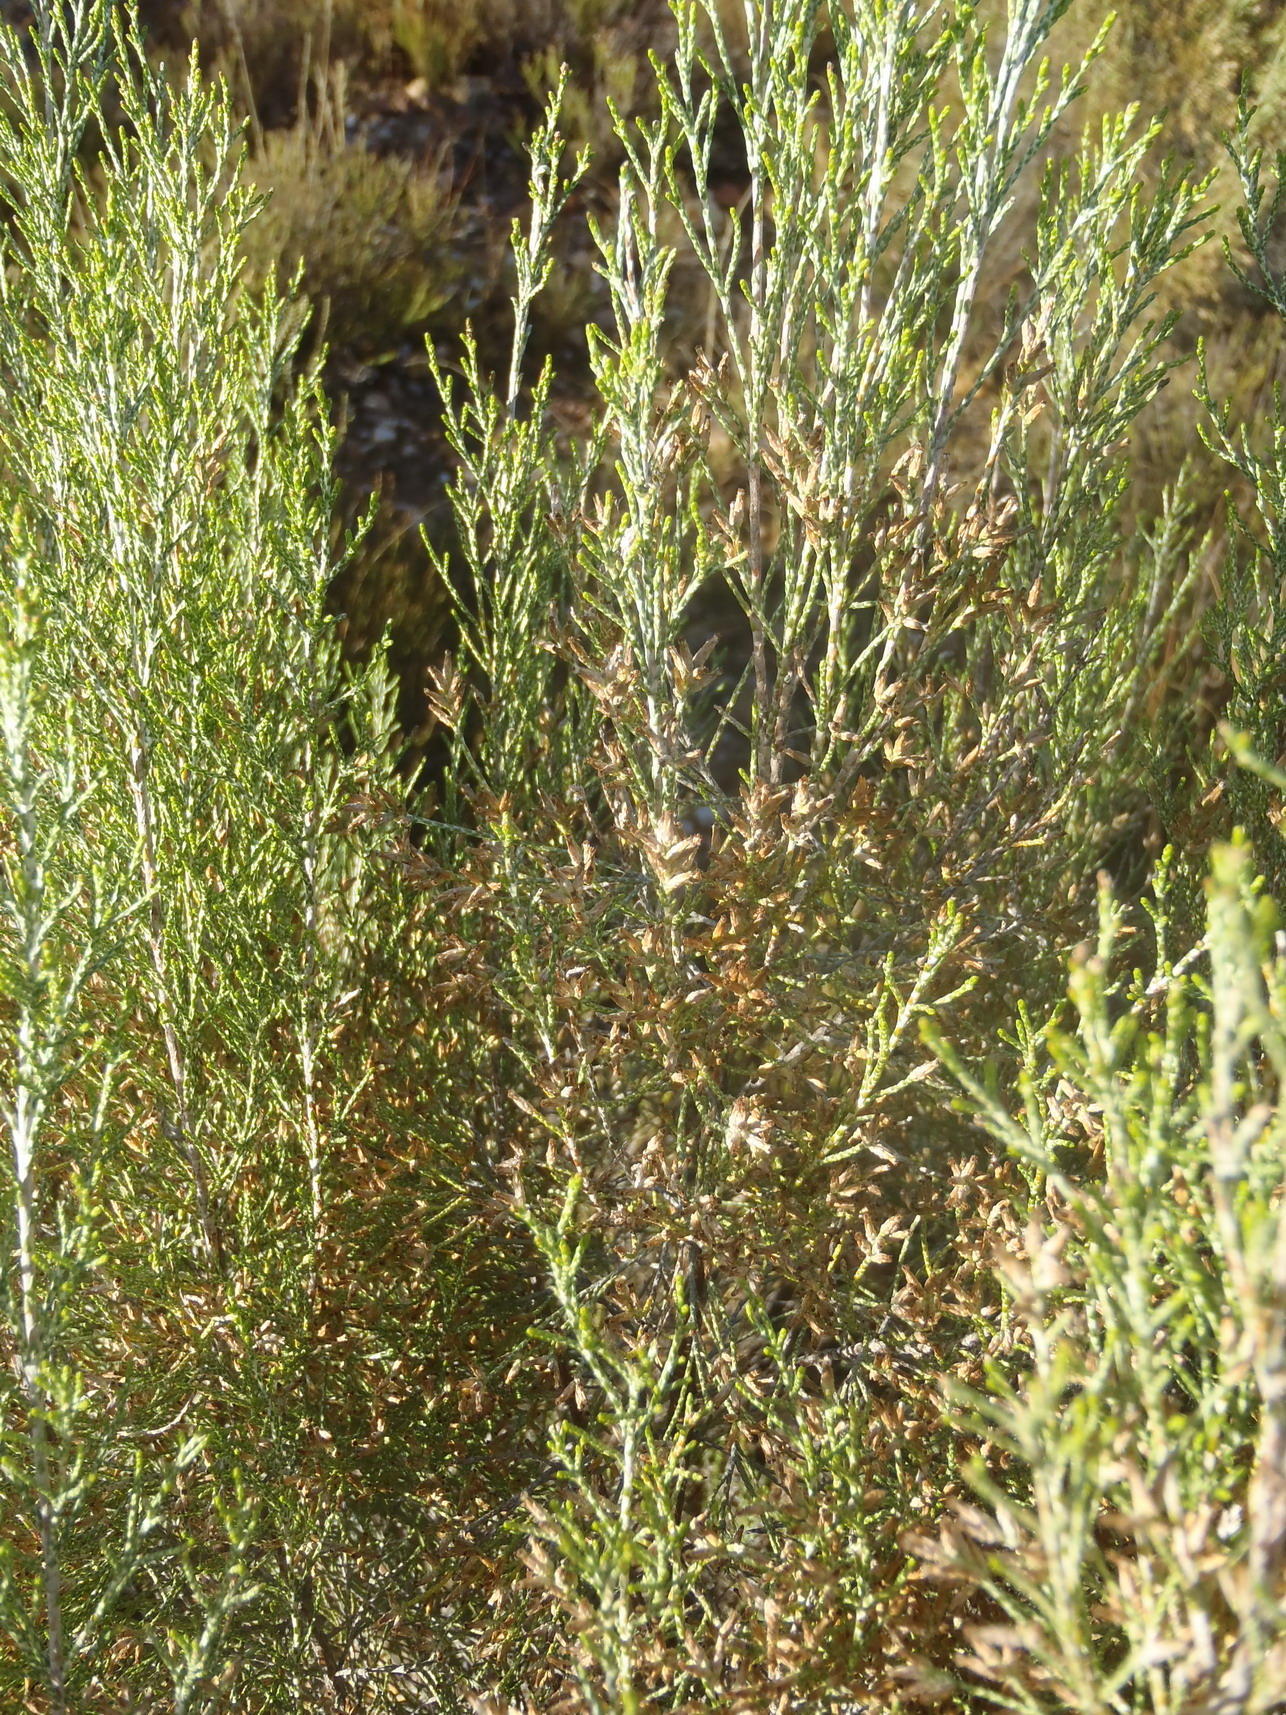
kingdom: Plantae
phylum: Tracheophyta
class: Magnoliopsida
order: Asterales
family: Asteraceae
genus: Dicerothamnus
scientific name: Dicerothamnus rhinocerotis
